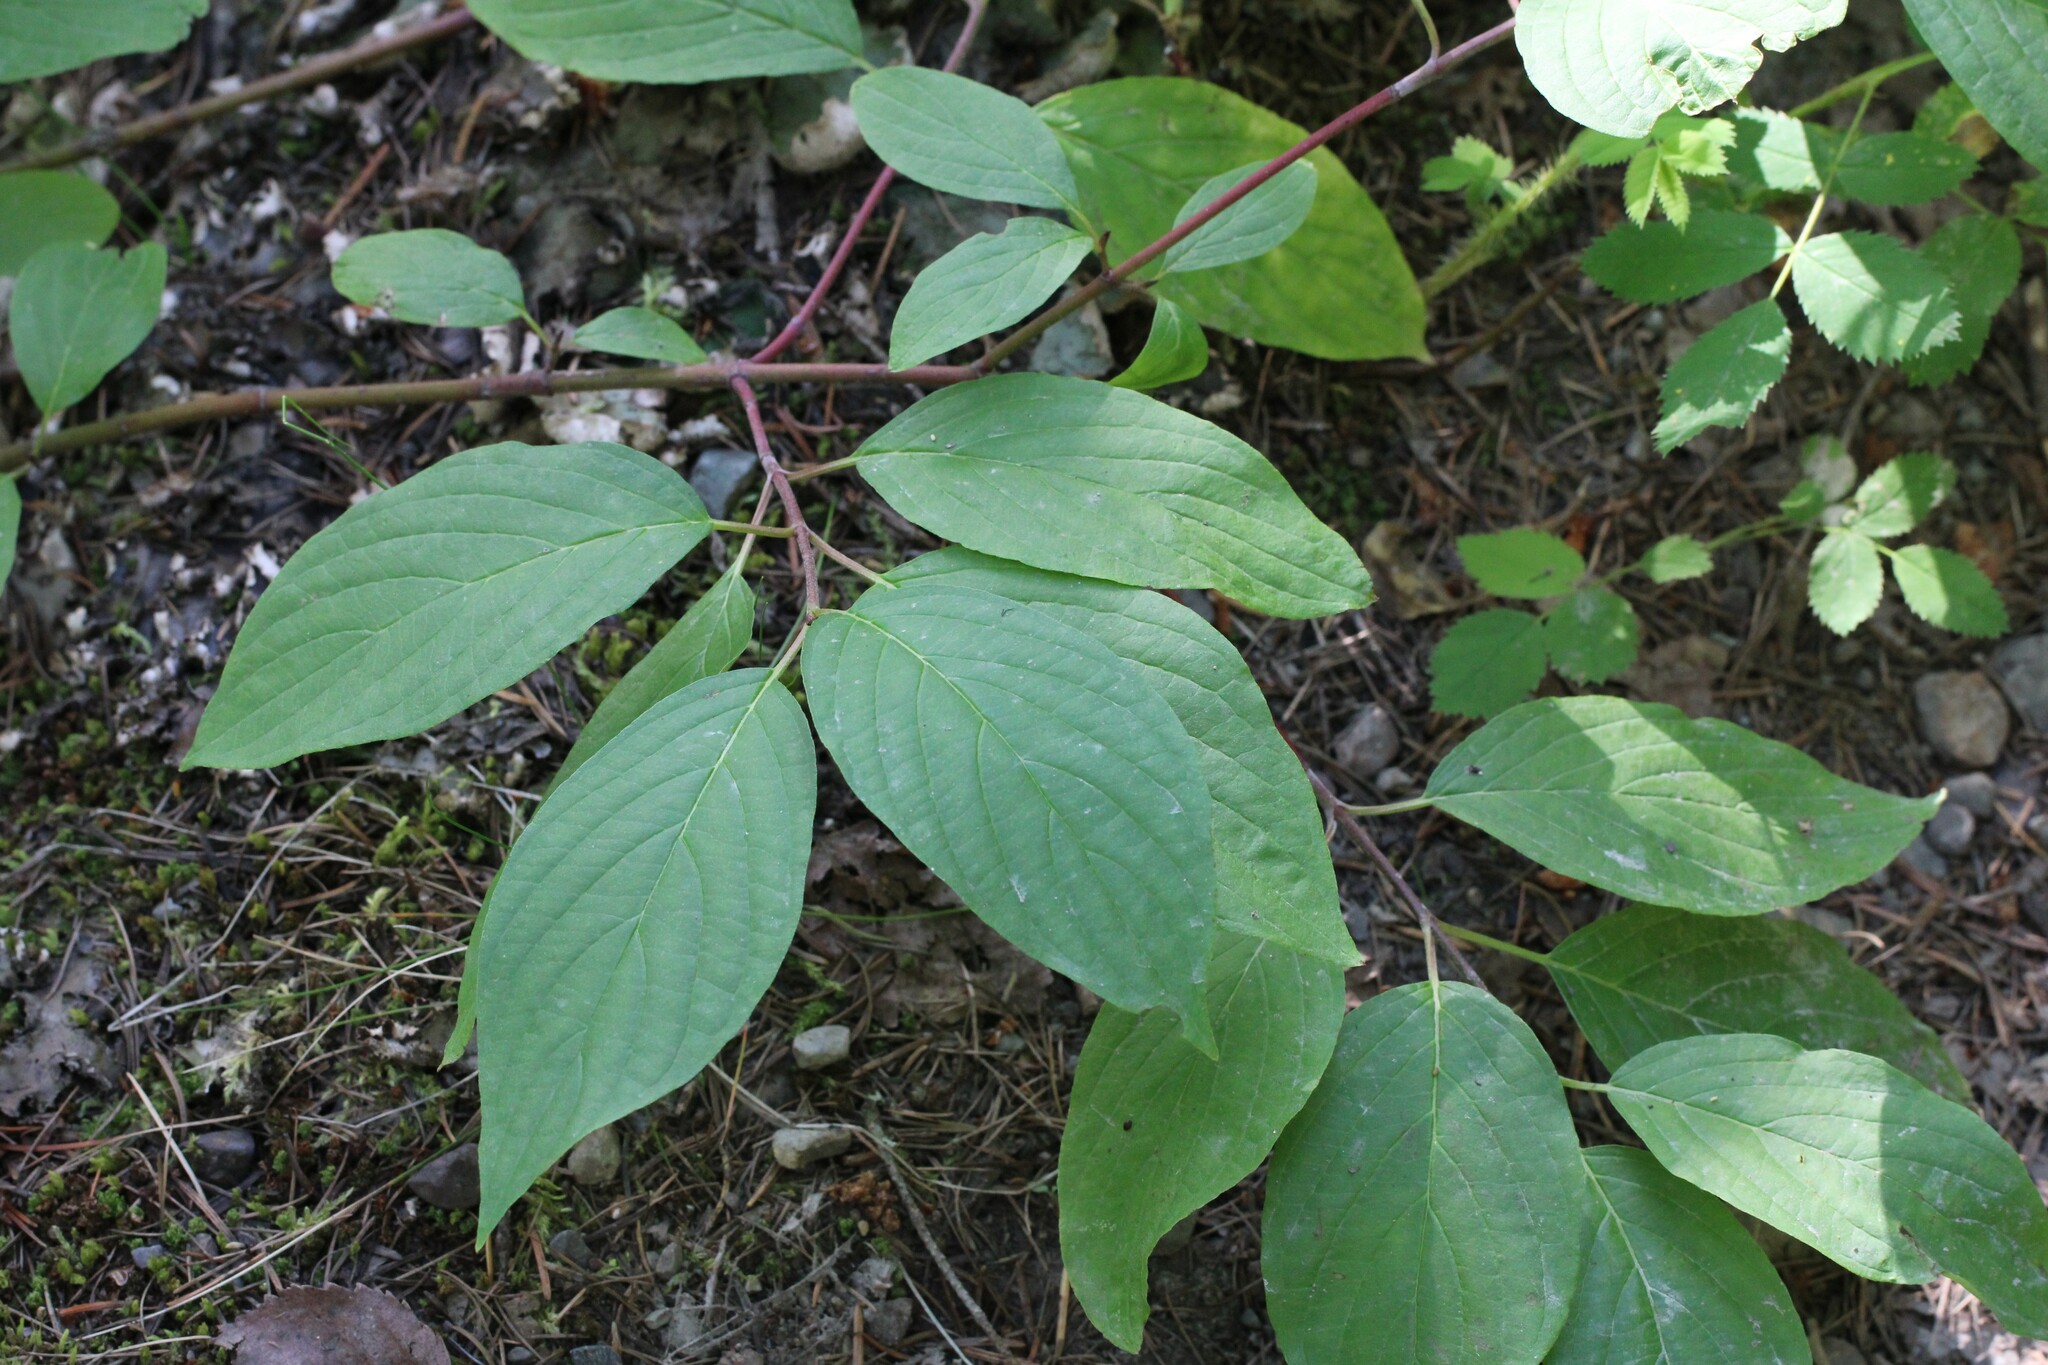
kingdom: Plantae
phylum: Tracheophyta
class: Magnoliopsida
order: Cornales
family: Cornaceae
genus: Cornus
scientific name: Cornus sericea
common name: Red-osier dogwood
